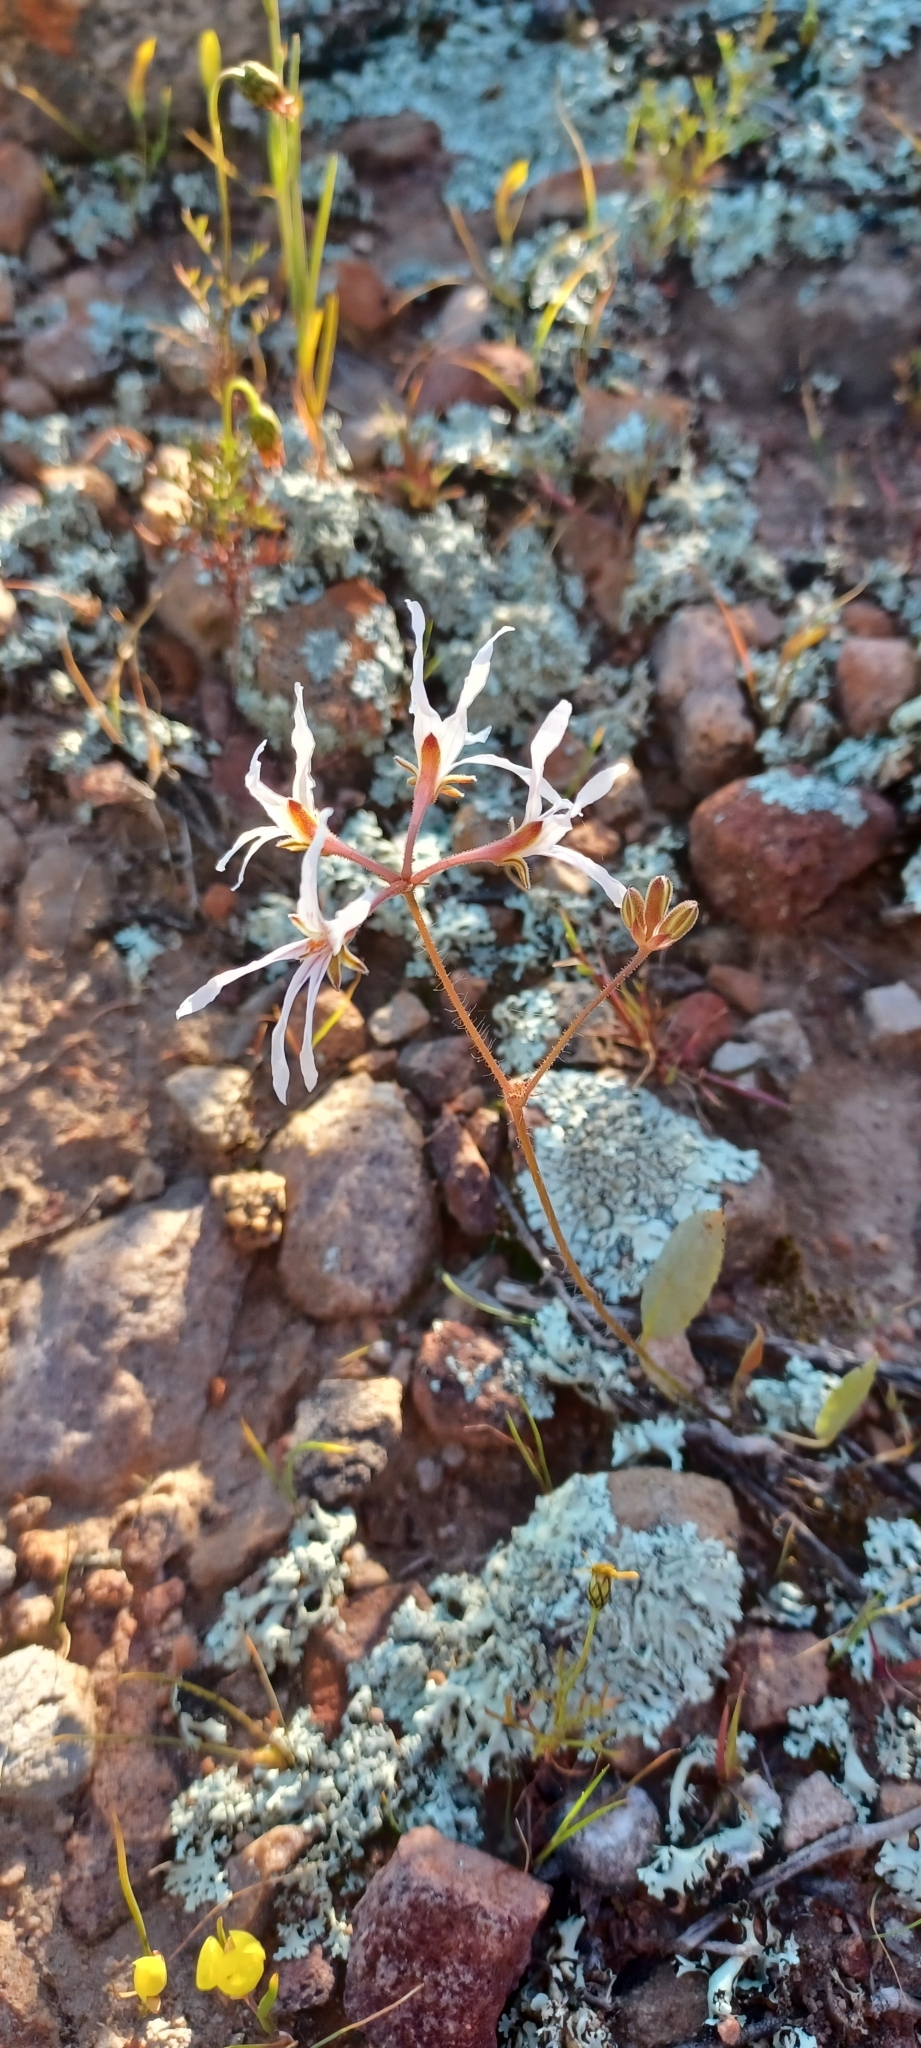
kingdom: Plantae
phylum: Tracheophyta
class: Magnoliopsida
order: Geraniales
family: Geraniaceae
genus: Pelargonium
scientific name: Pelargonium undulatum
